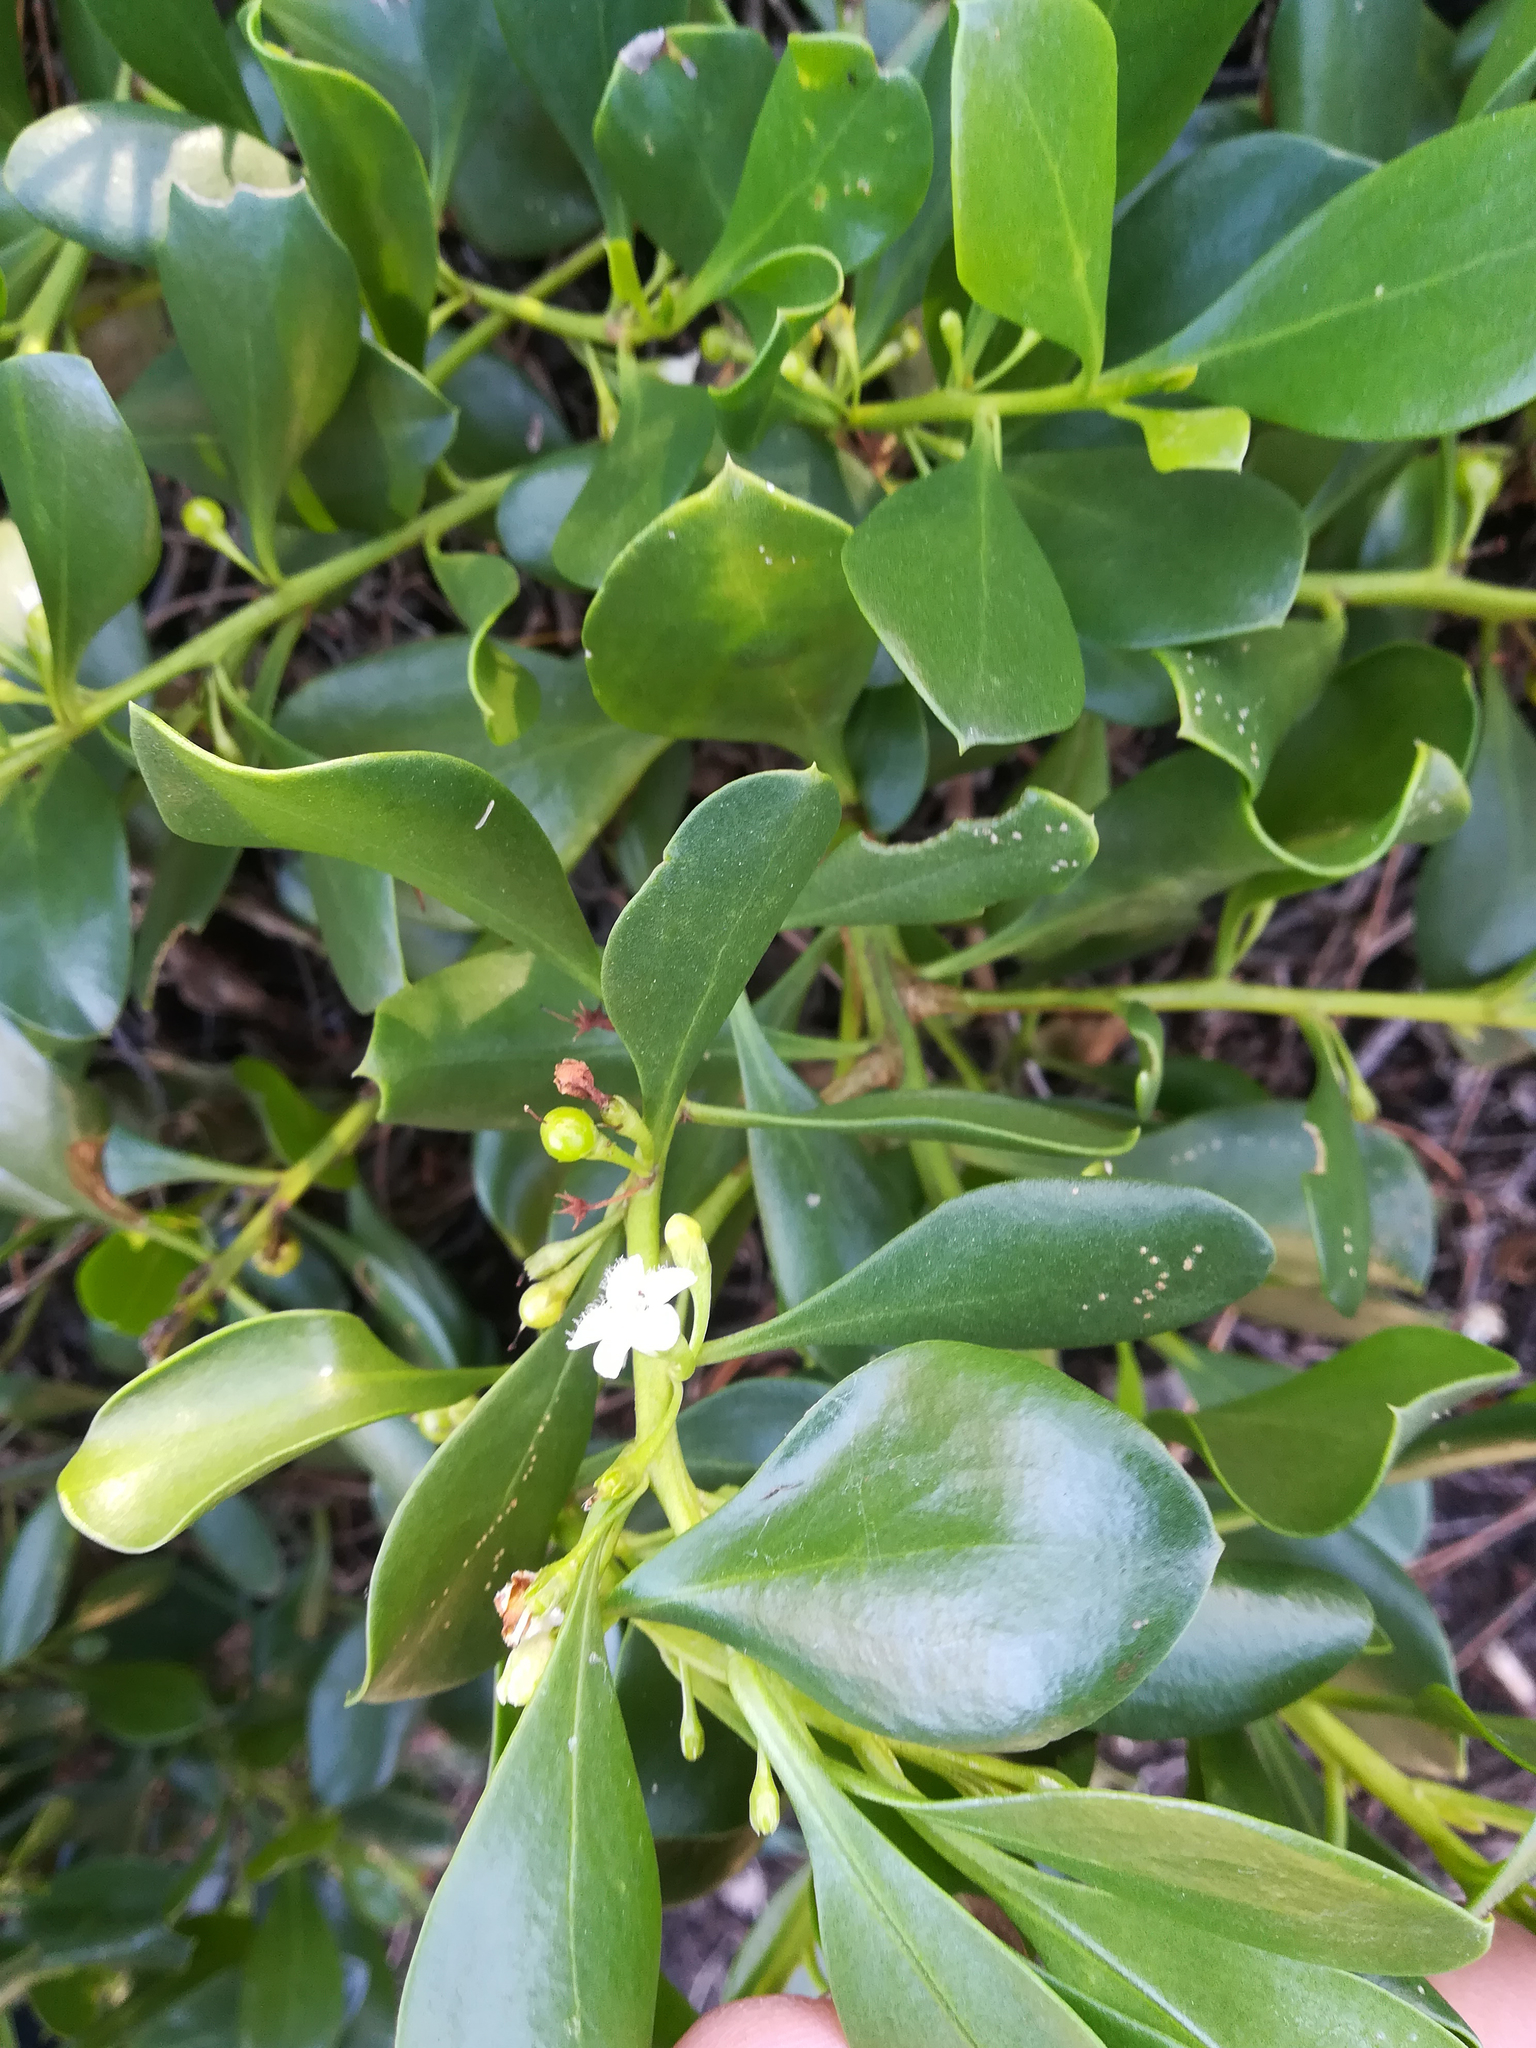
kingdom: Plantae
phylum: Tracheophyta
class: Magnoliopsida
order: Lamiales
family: Scrophulariaceae
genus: Myoporum
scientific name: Myoporum boninense
